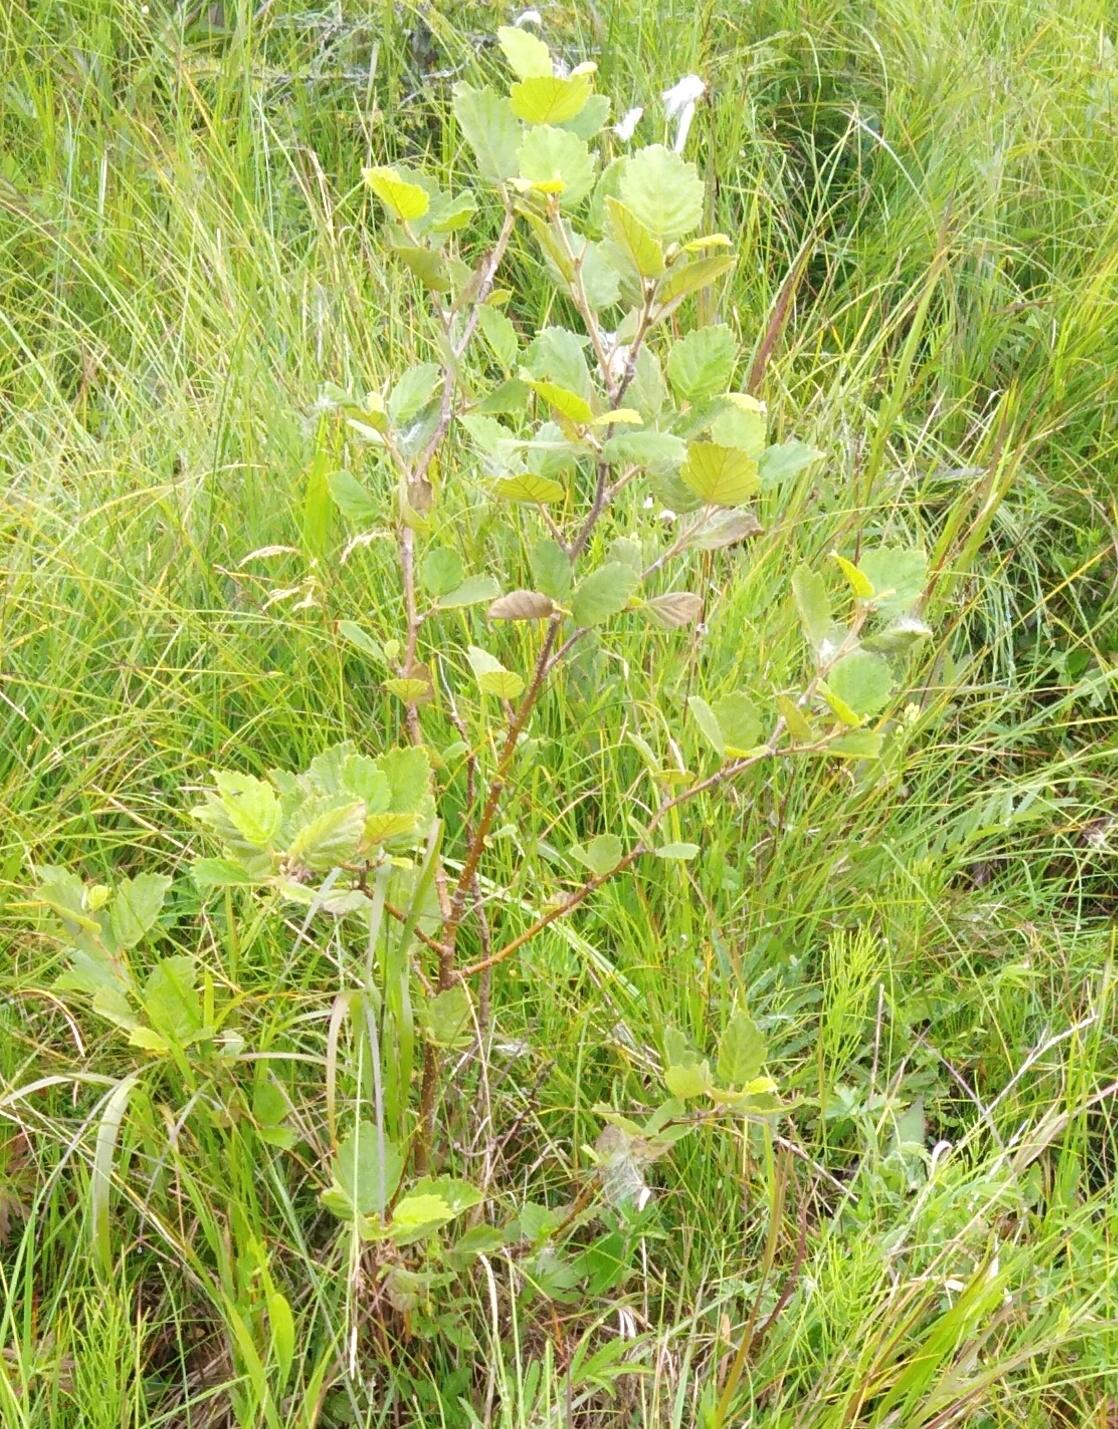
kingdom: Plantae
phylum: Tracheophyta
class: Magnoliopsida
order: Fagales
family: Betulaceae
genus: Alnus
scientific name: Alnus hirsuta
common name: Manchurian alder
